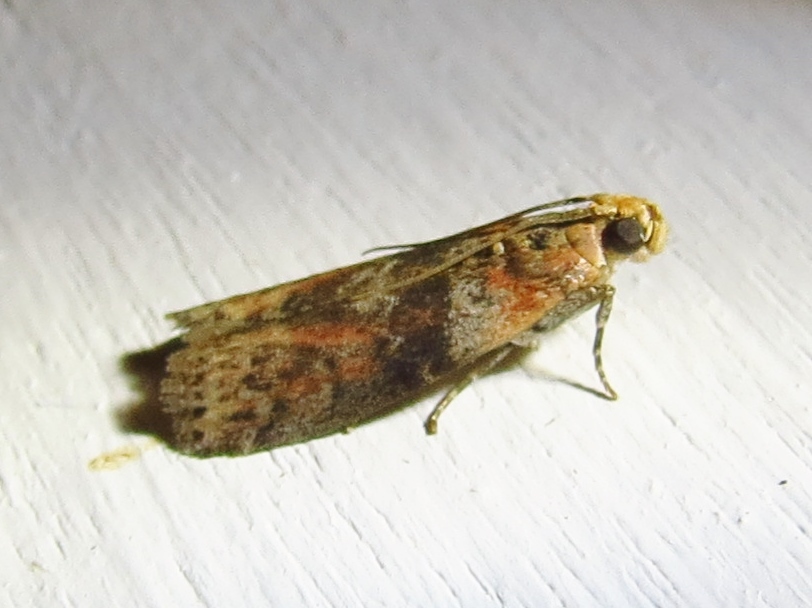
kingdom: Animalia
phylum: Arthropoda
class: Insecta
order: Lepidoptera
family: Pyralidae
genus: Sciota
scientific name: Sciota celtidella
